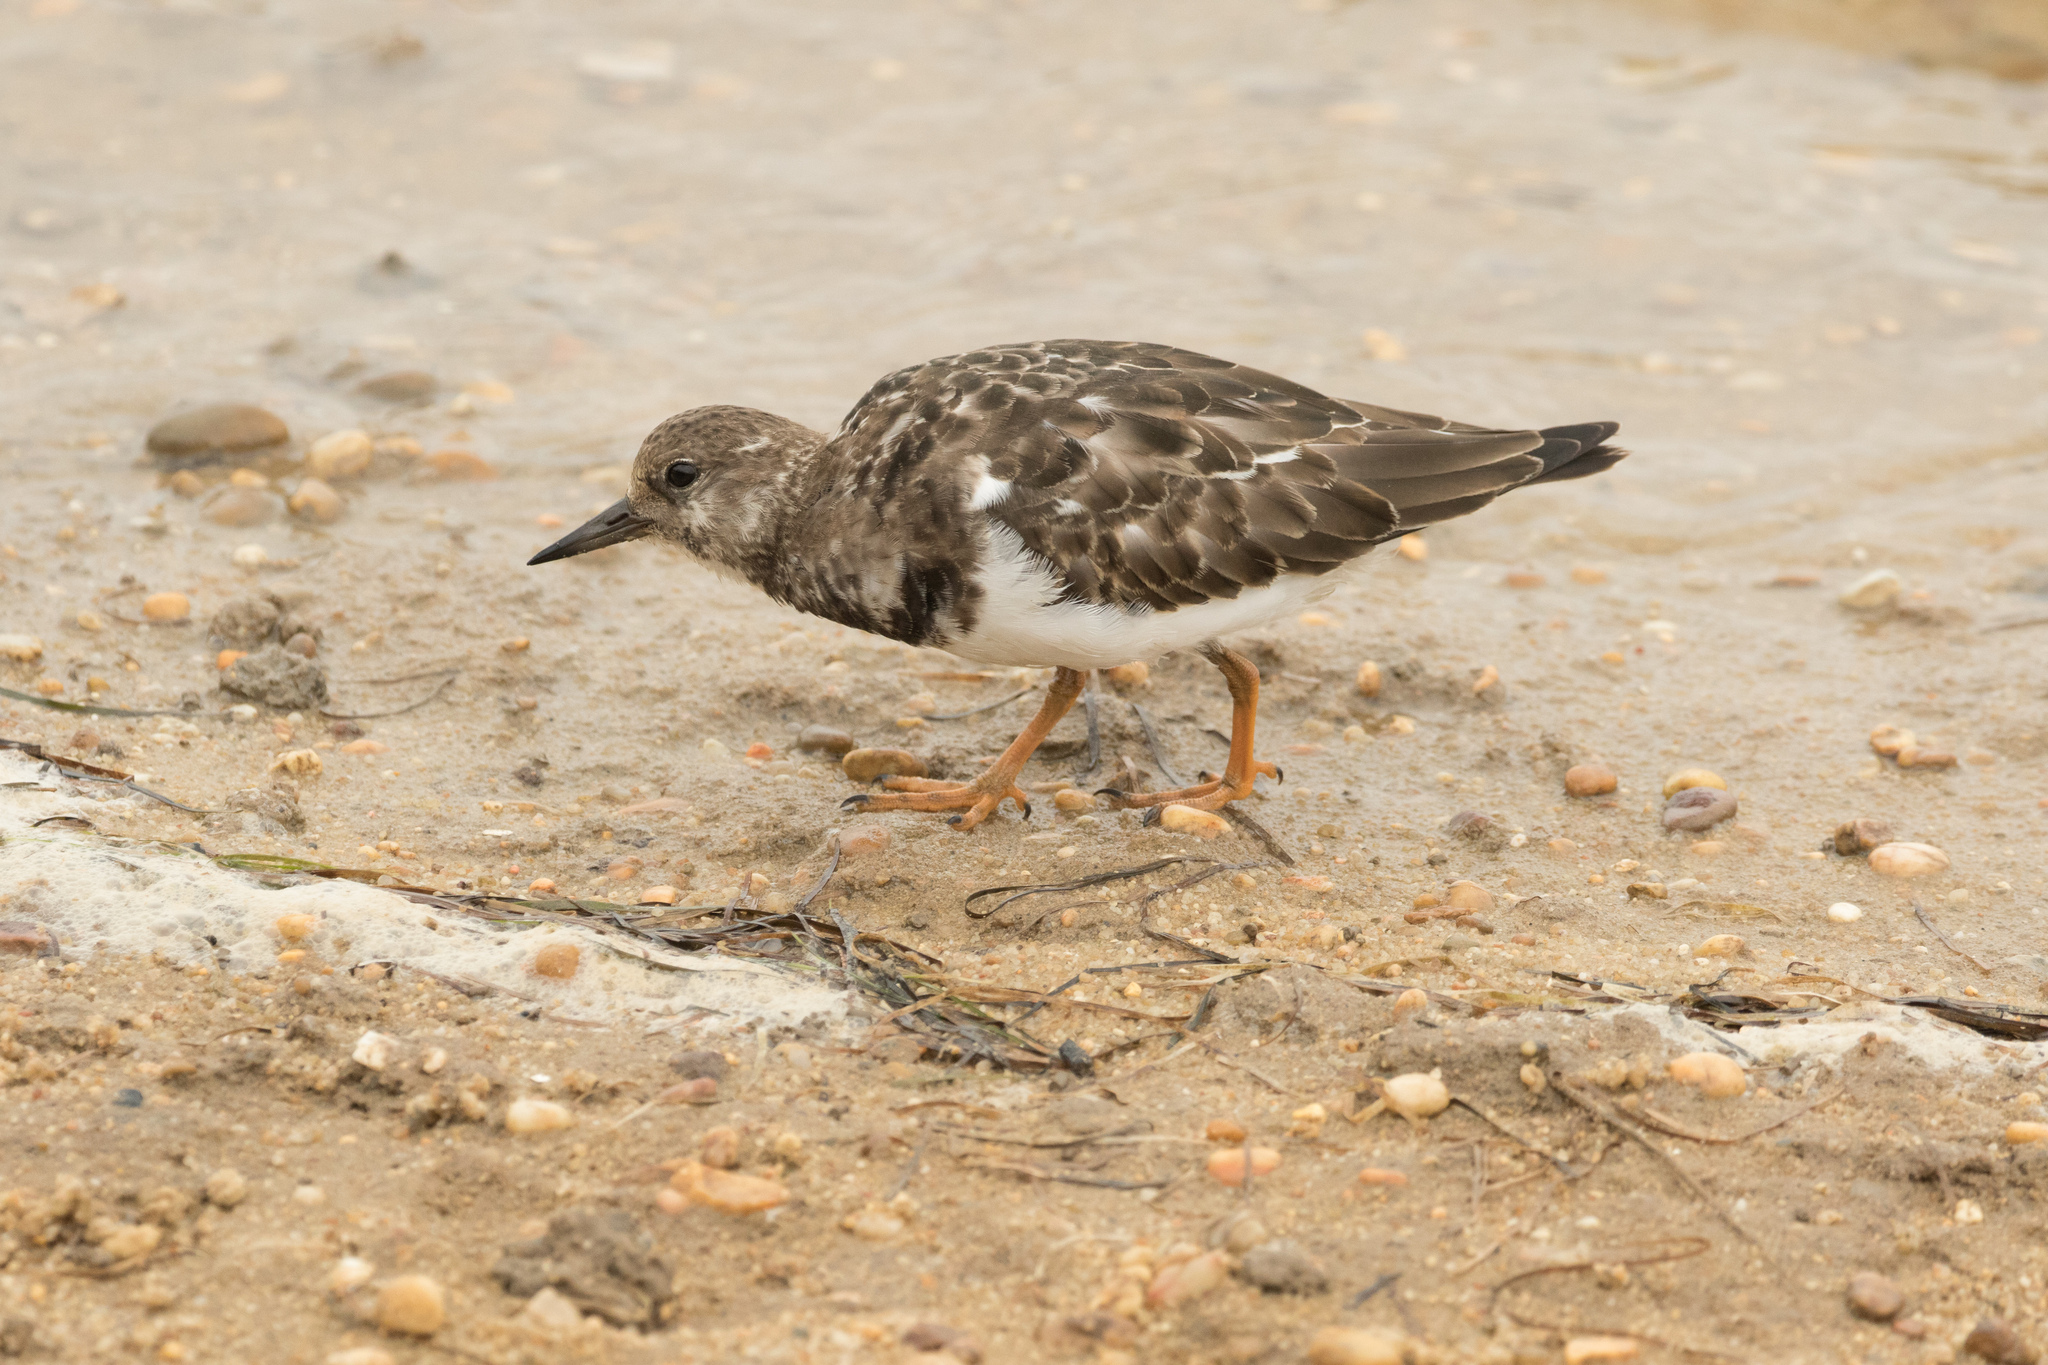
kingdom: Animalia
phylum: Chordata
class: Aves
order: Charadriiformes
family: Scolopacidae
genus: Arenaria
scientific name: Arenaria interpres
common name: Ruddy turnstone
